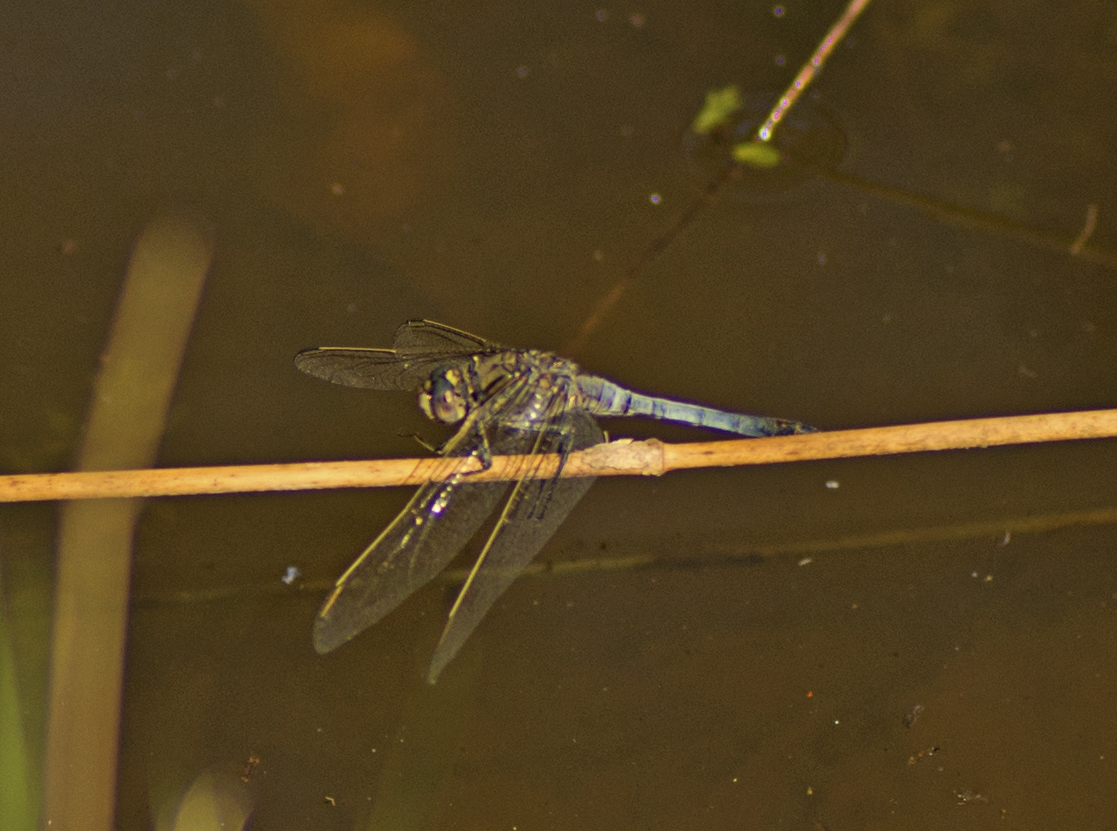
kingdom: Animalia
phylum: Arthropoda
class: Insecta
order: Odonata
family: Libellulidae
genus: Orthetrum
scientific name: Orthetrum caledonicum
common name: Blue skimmer
